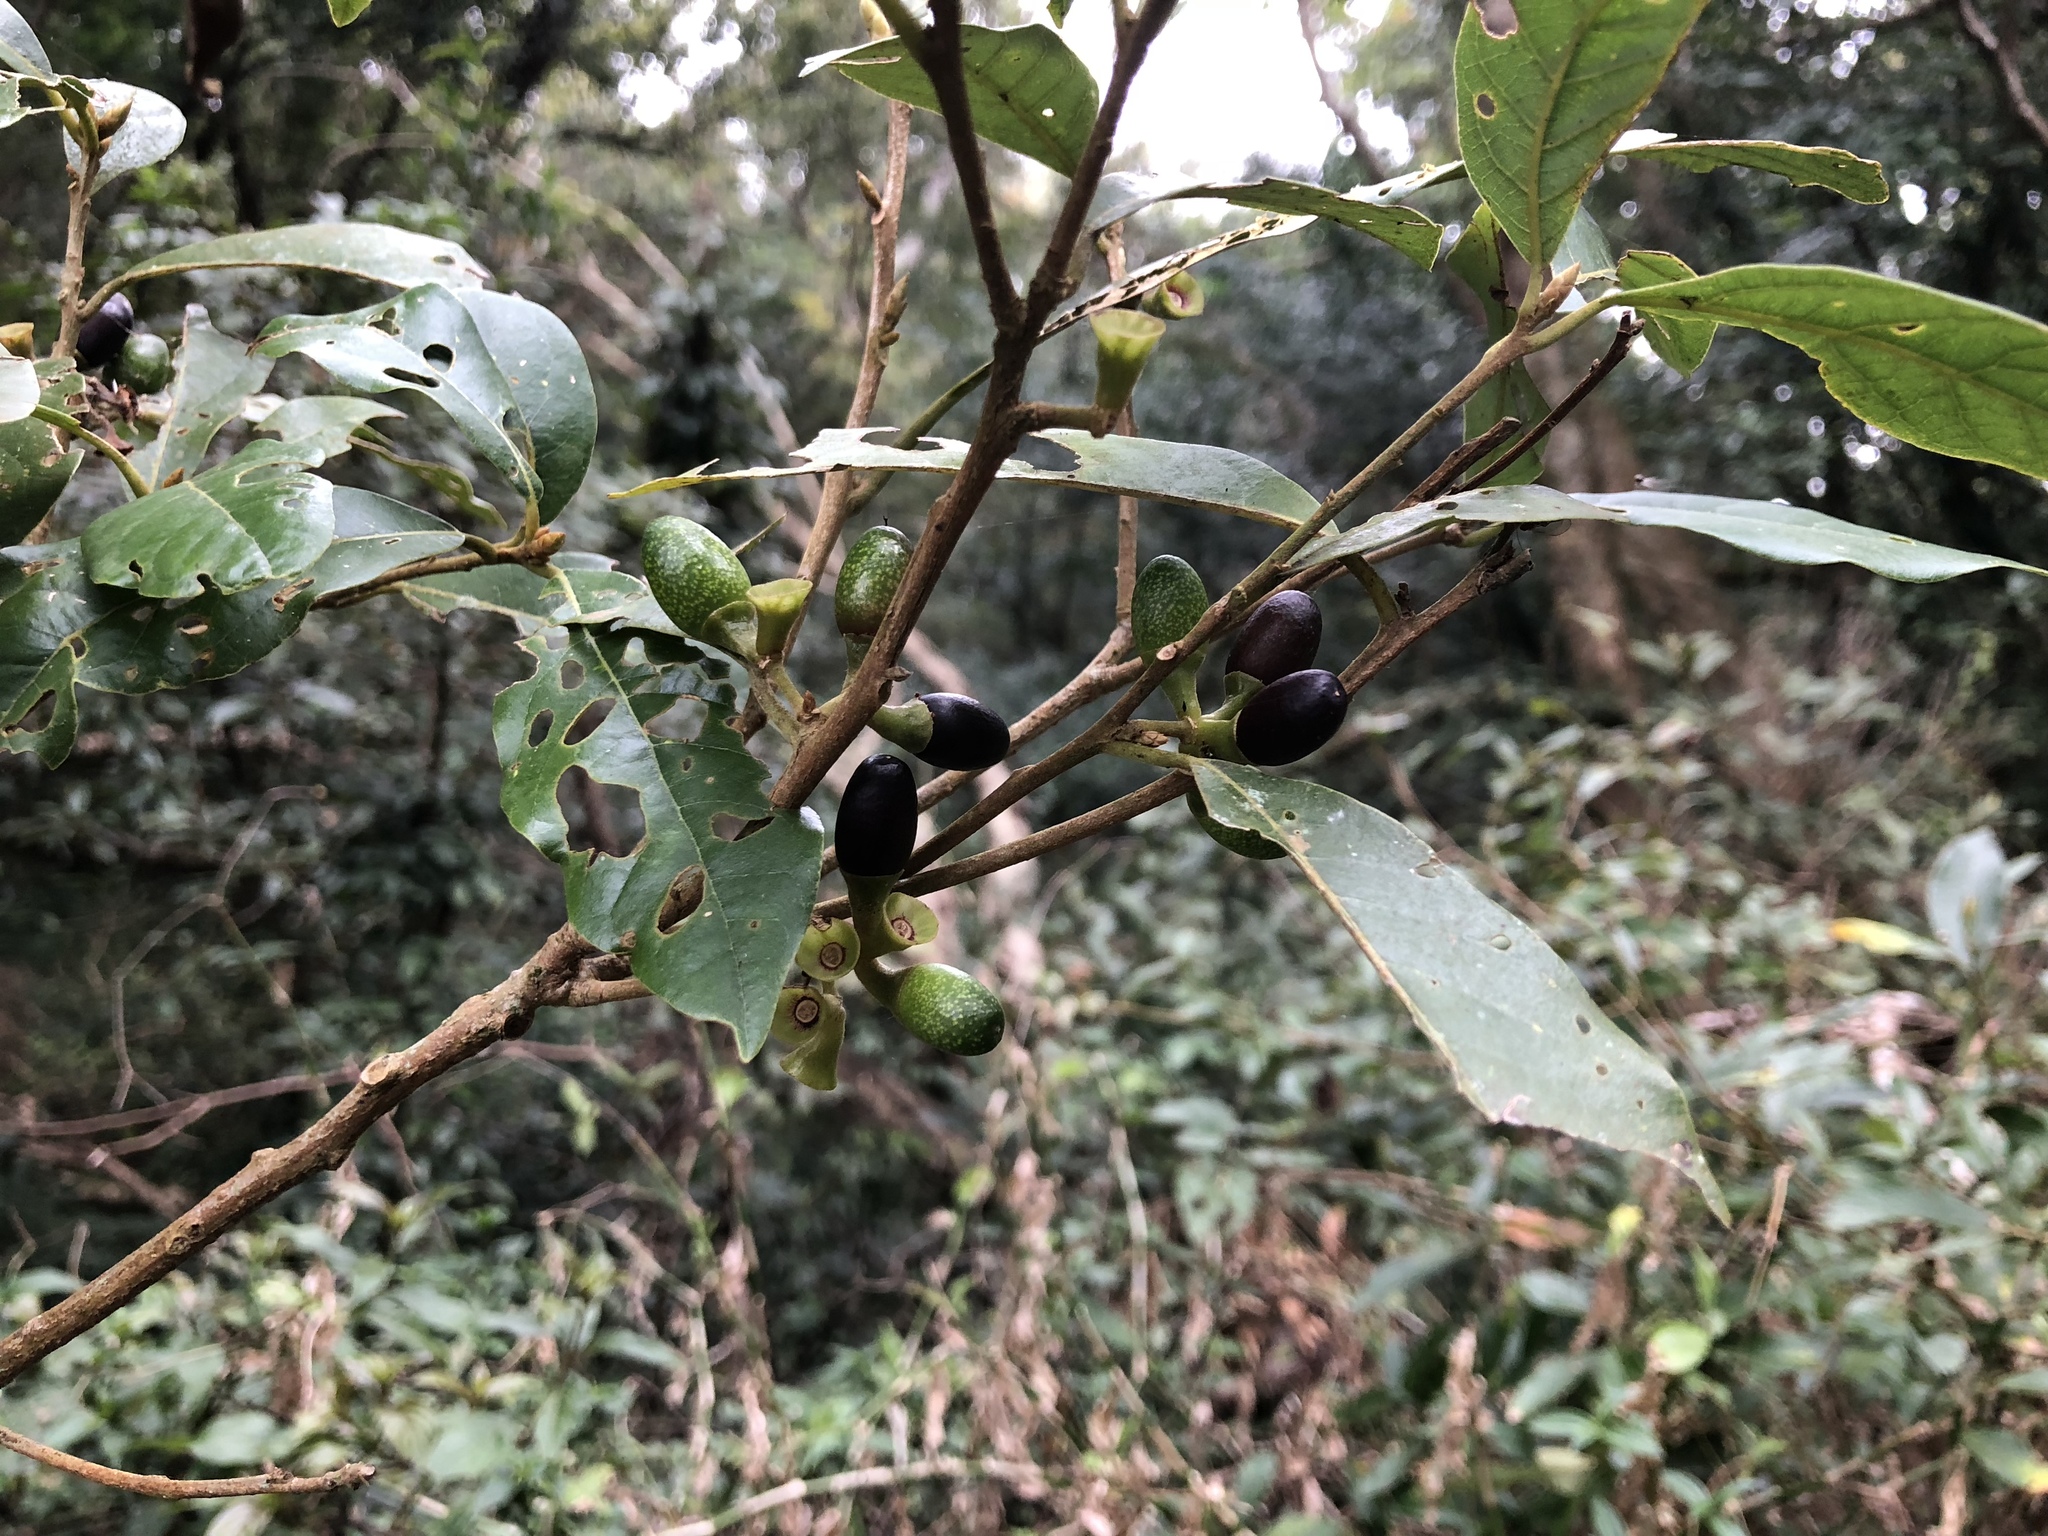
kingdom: Plantae
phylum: Tracheophyta
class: Magnoliopsida
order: Laurales
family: Lauraceae
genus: Litsea
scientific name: Litsea akoensis
